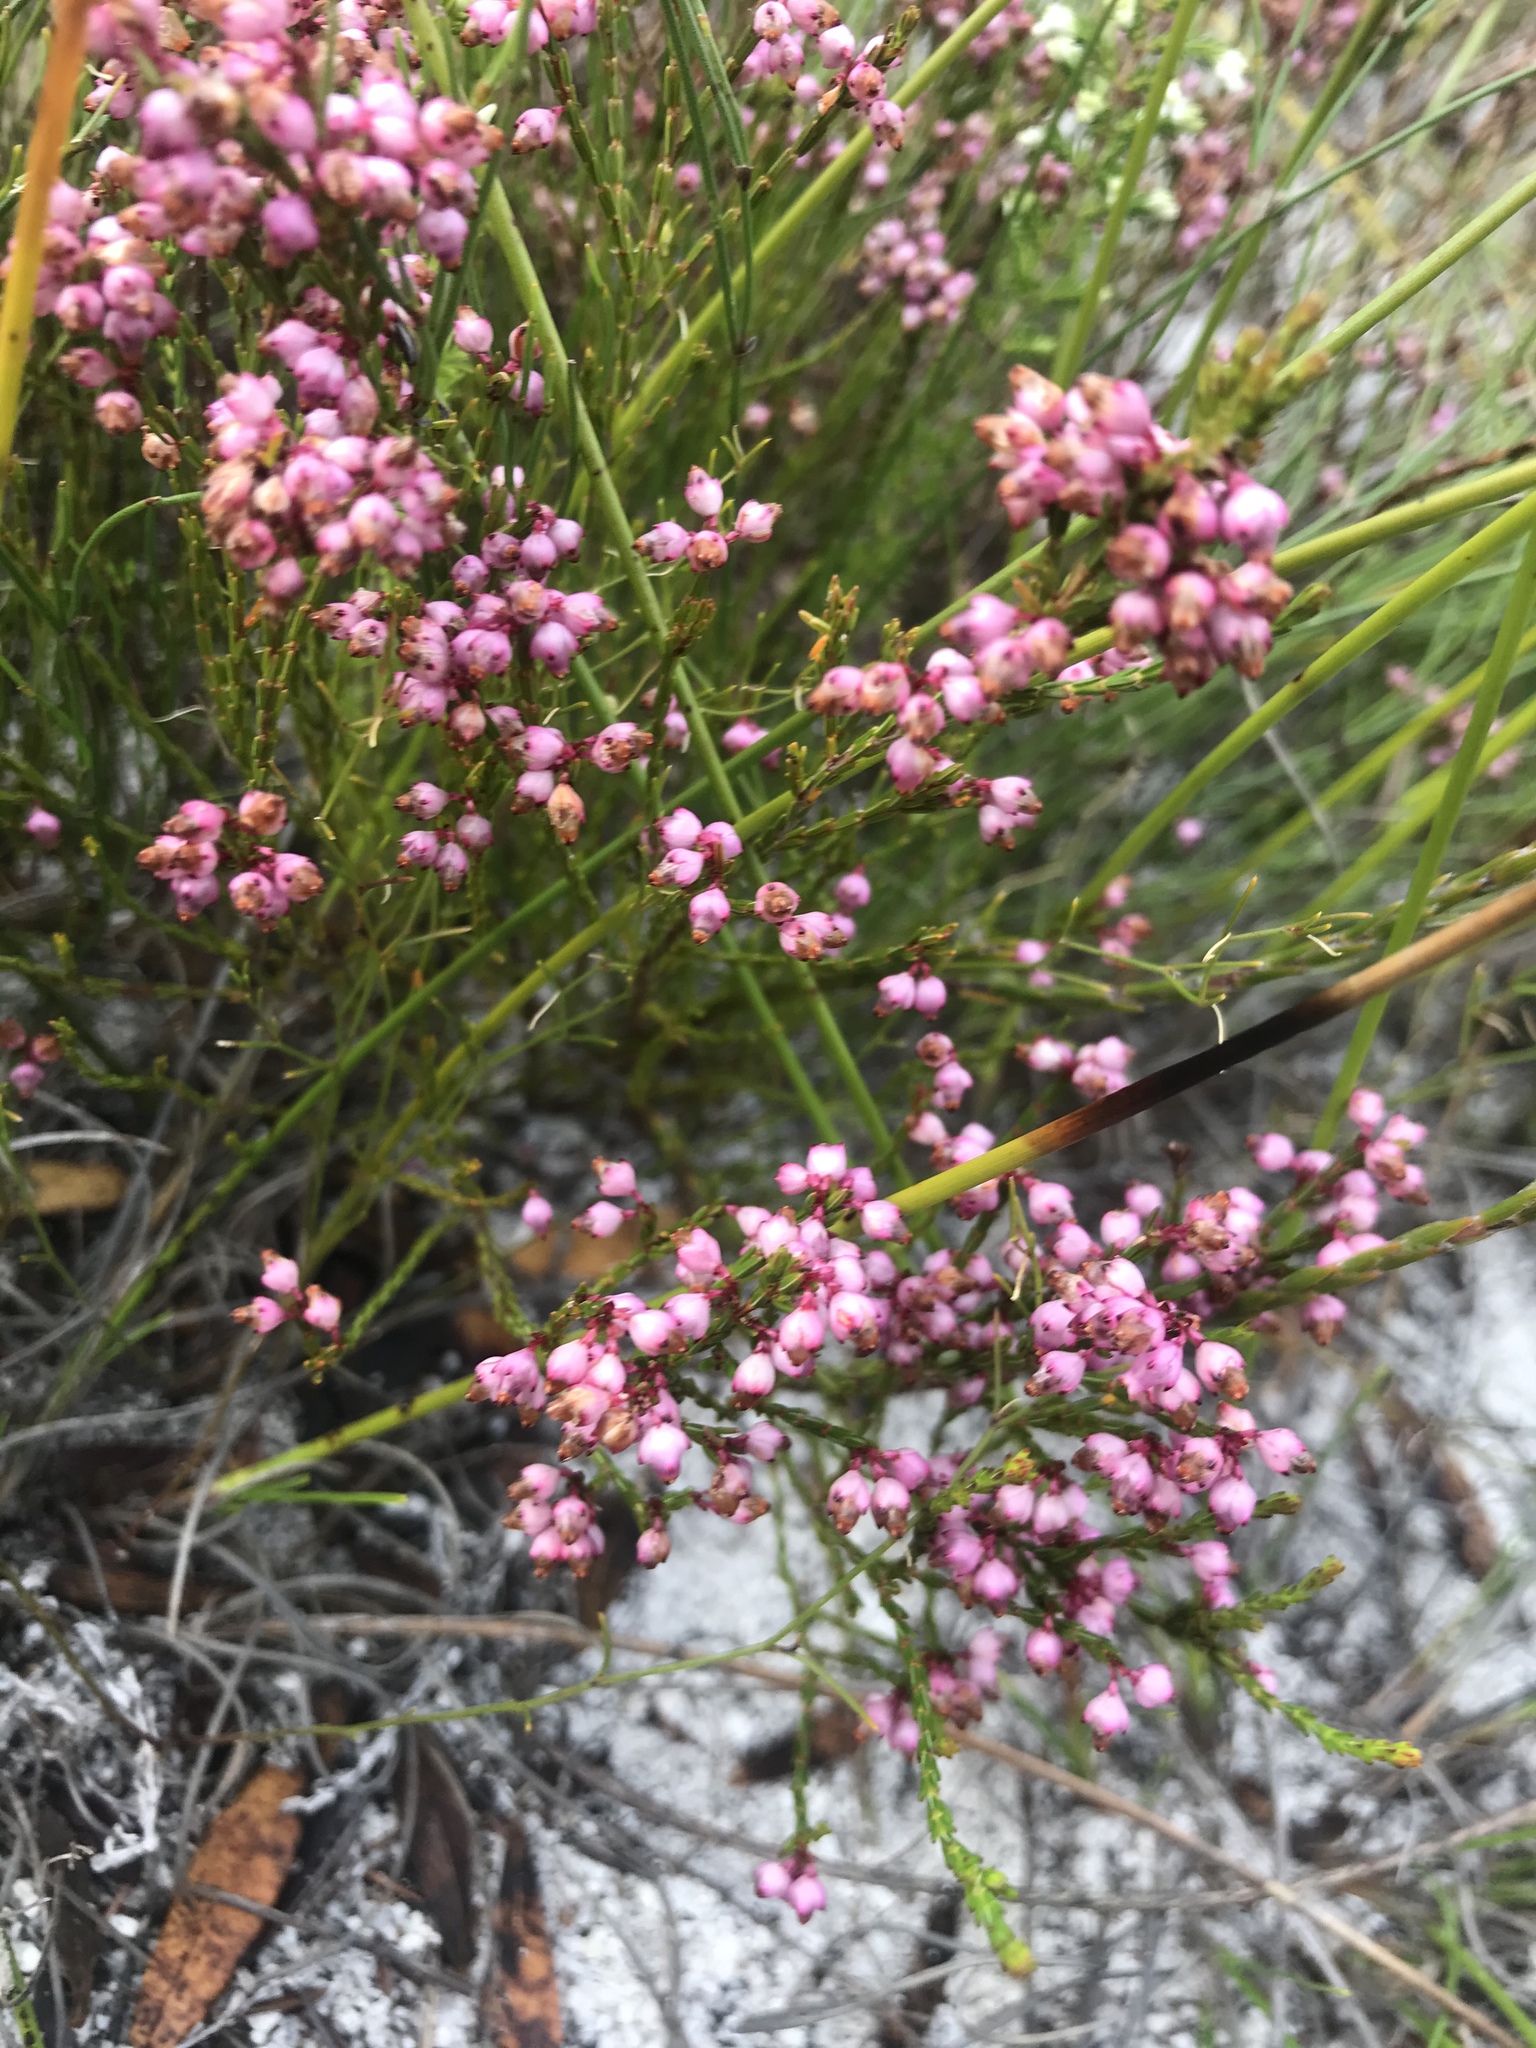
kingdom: Plantae
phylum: Tracheophyta
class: Magnoliopsida
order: Ericales
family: Ericaceae
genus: Erica
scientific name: Erica corifolia
